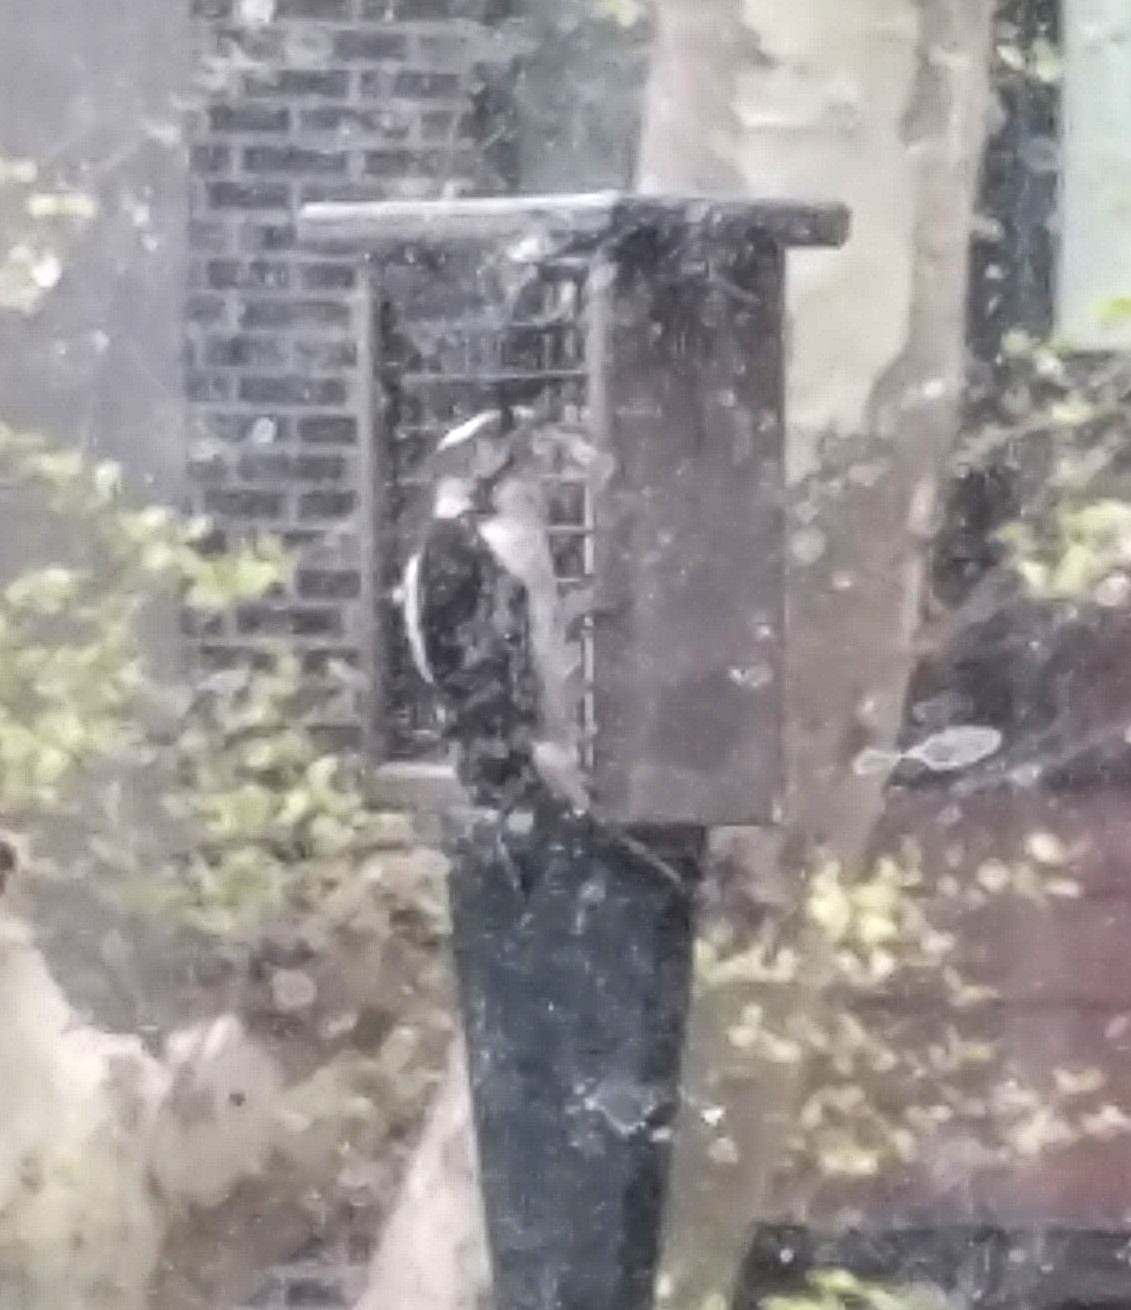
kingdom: Animalia
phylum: Chordata
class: Aves
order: Piciformes
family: Picidae
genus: Dryobates
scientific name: Dryobates pubescens
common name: Downy woodpecker
